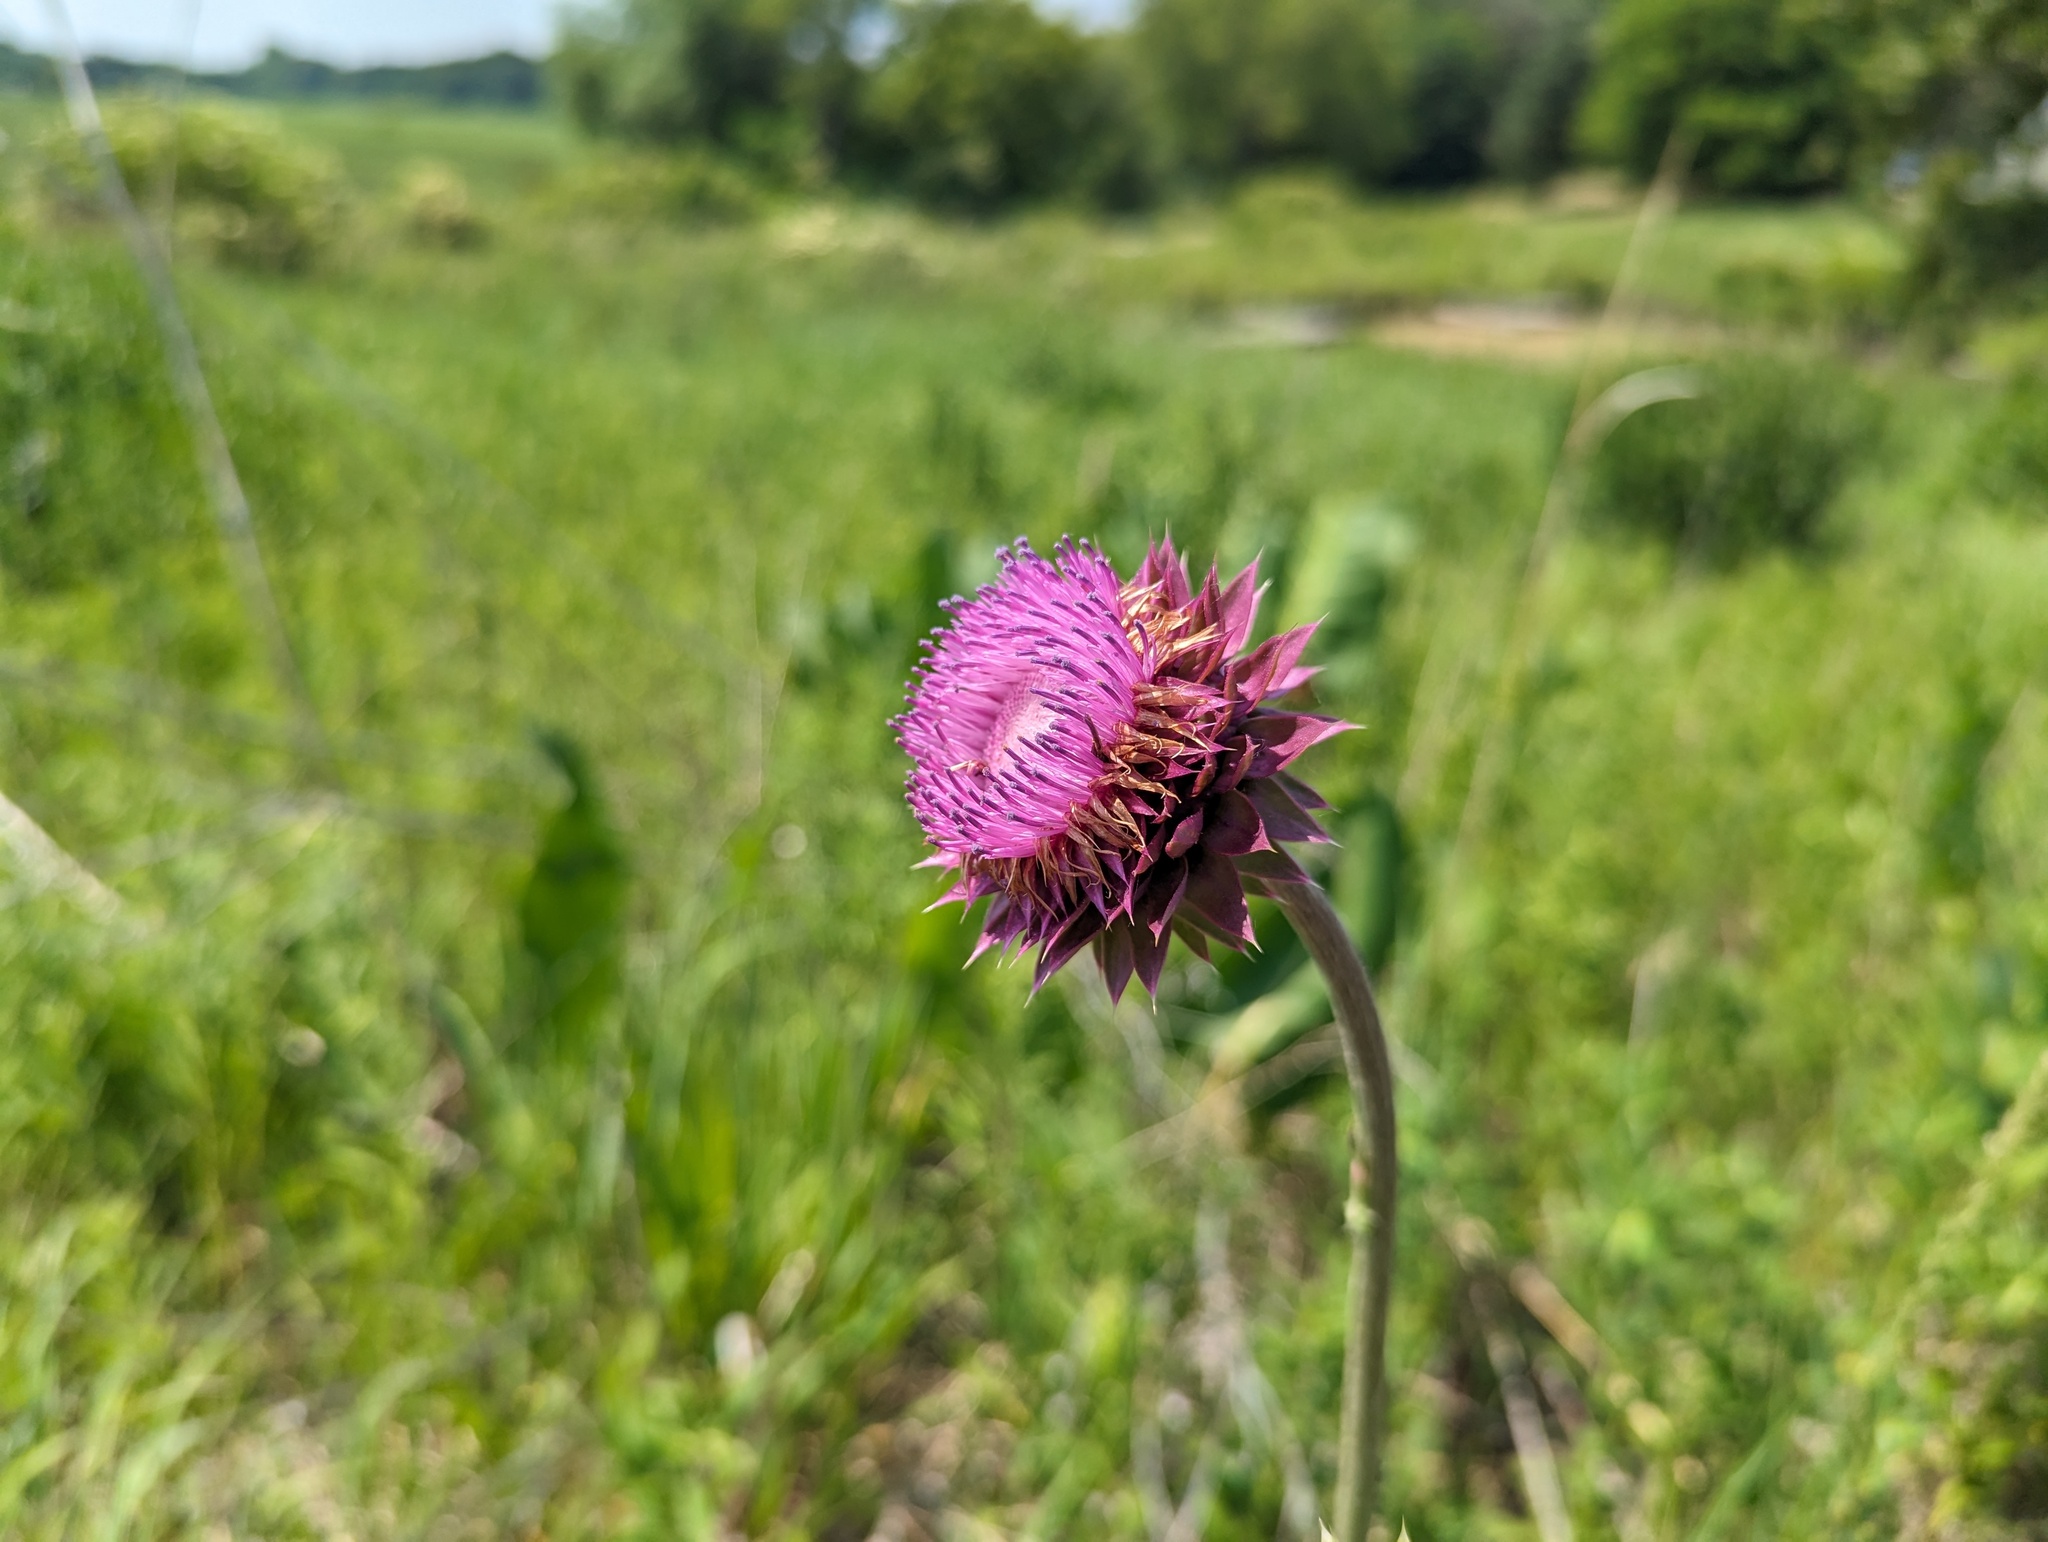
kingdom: Plantae
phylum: Tracheophyta
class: Magnoliopsida
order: Asterales
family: Asteraceae
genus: Carduus
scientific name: Carduus nutans
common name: Musk thistle
